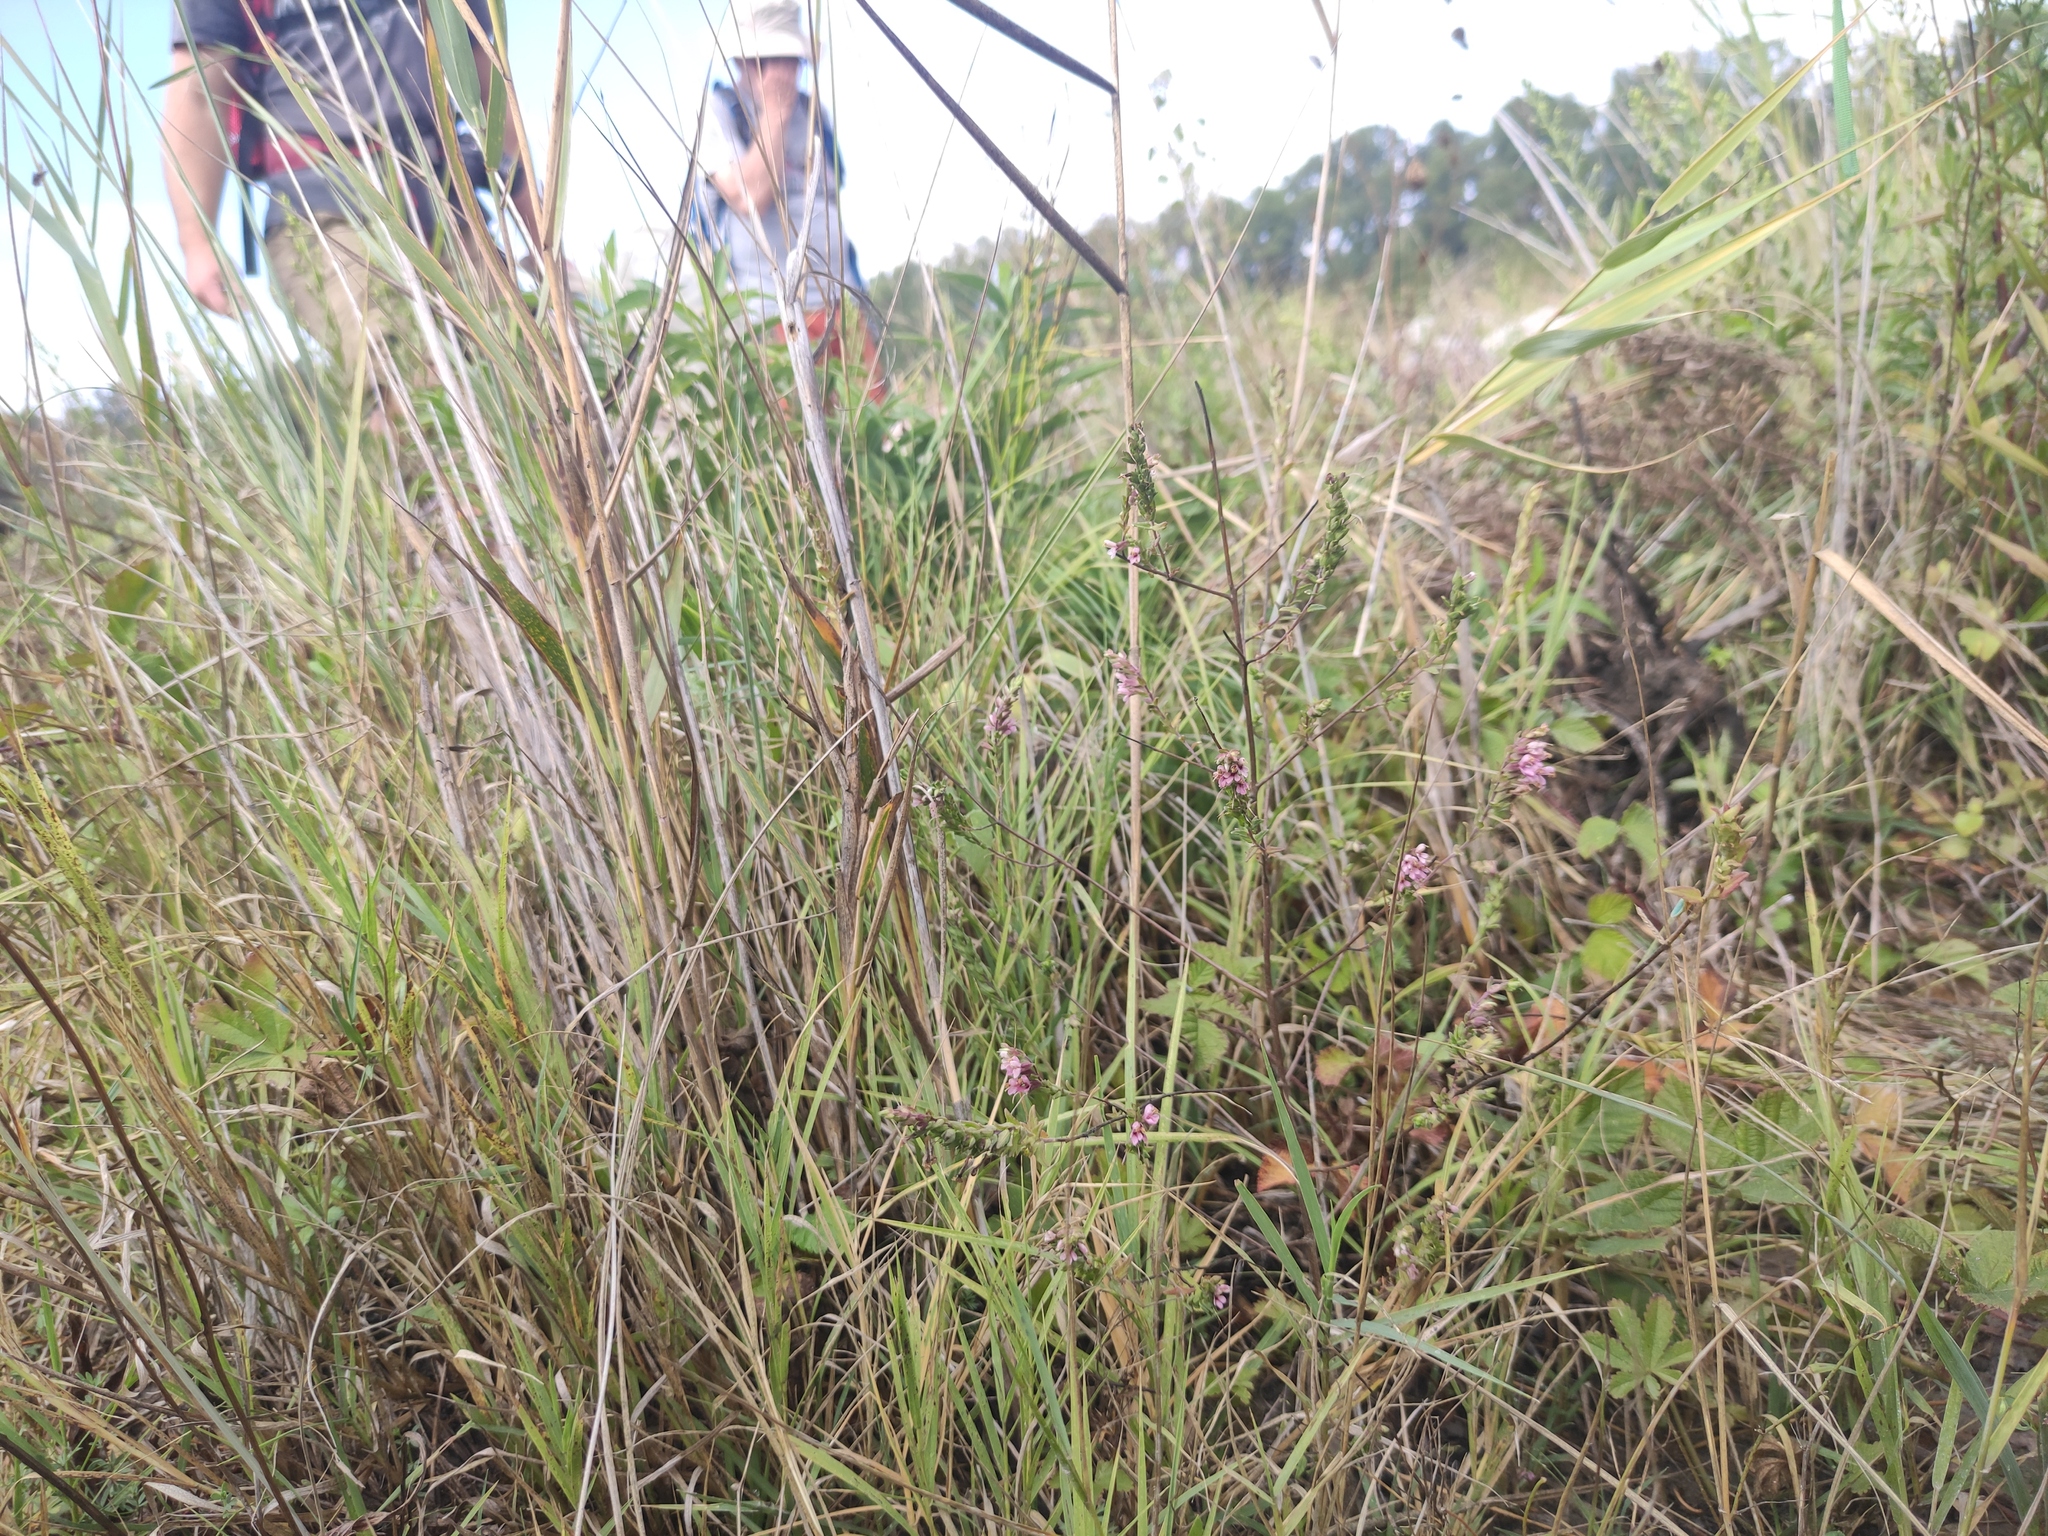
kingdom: Plantae
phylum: Tracheophyta
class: Magnoliopsida
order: Lamiales
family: Orobanchaceae
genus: Odontites
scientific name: Odontites vernus
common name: Red bartsia
